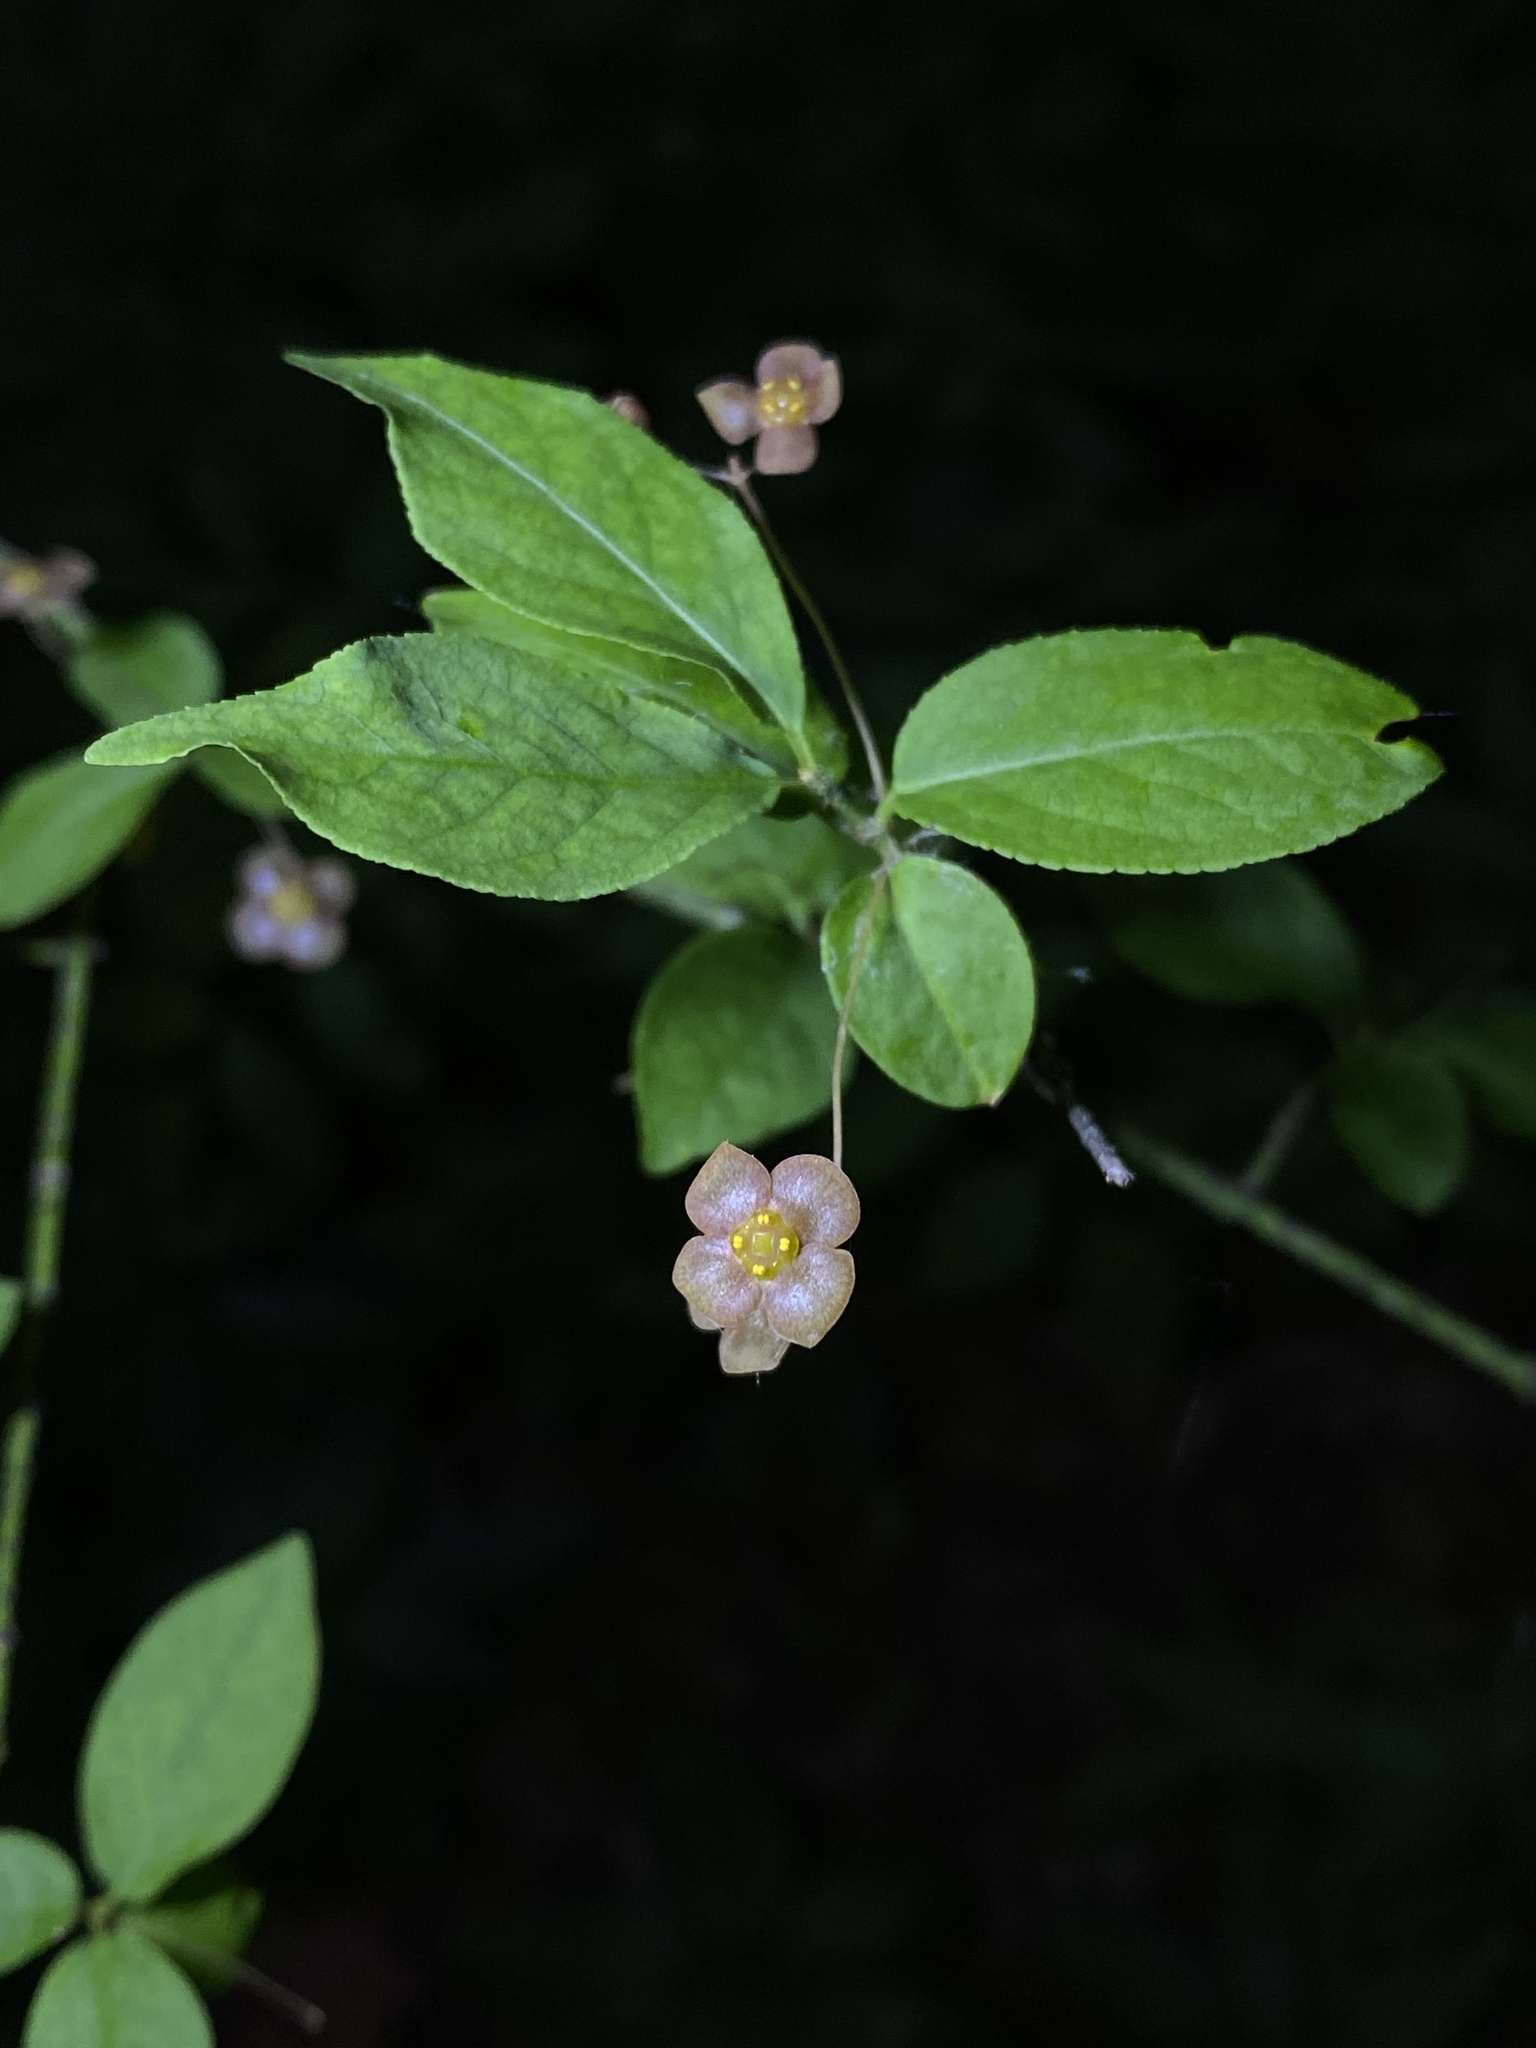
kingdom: Plantae
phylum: Tracheophyta
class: Magnoliopsida
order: Celastrales
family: Celastraceae
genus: Euonymus
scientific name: Euonymus verrucosus
